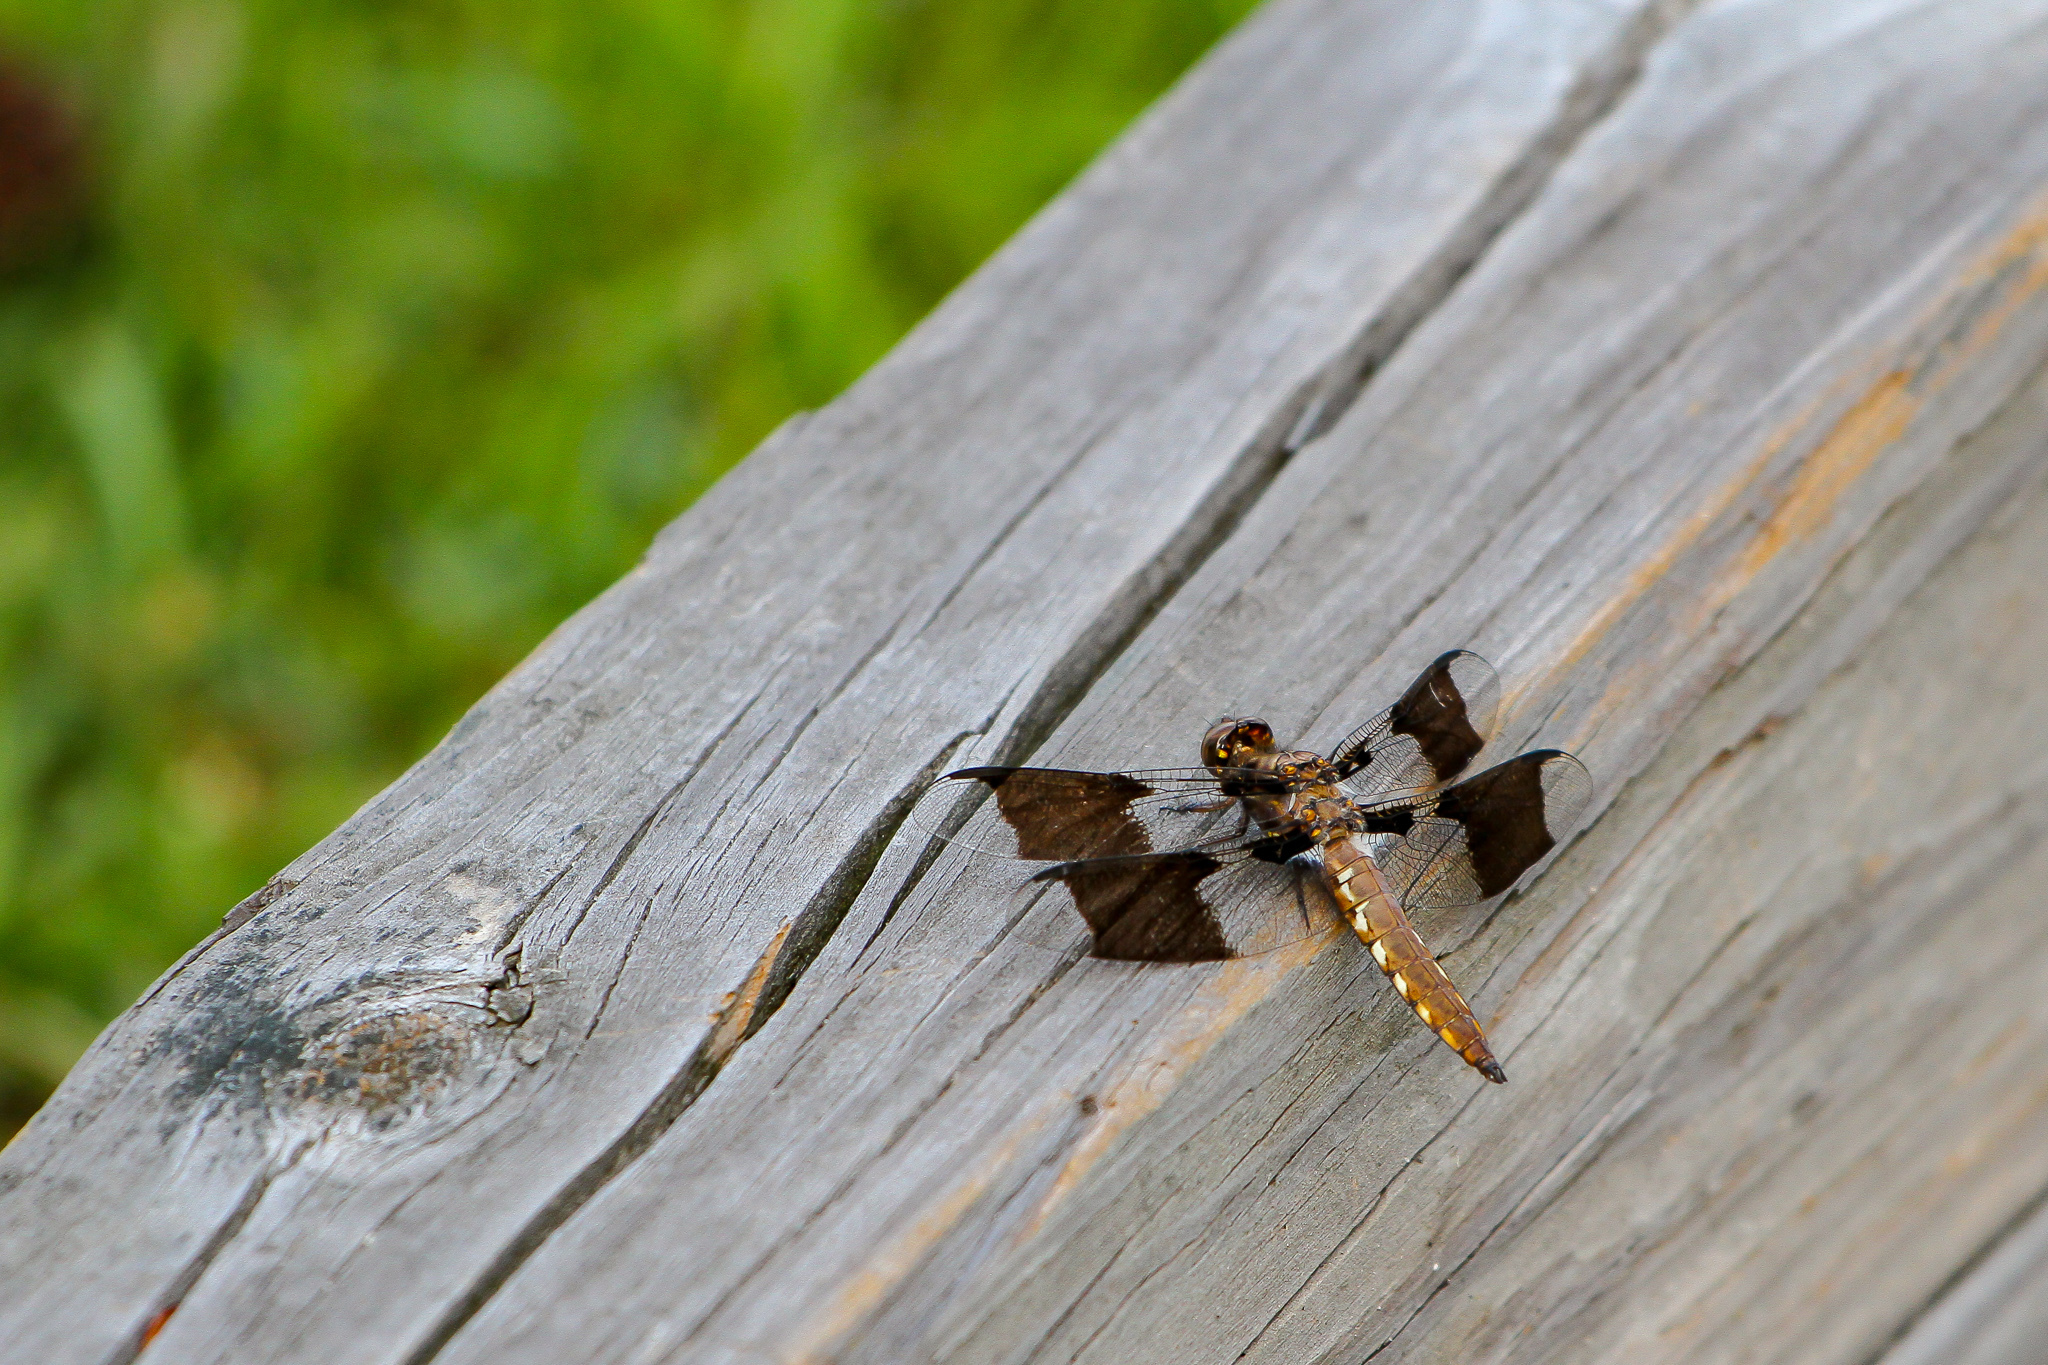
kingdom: Animalia
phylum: Arthropoda
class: Insecta
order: Odonata
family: Libellulidae
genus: Plathemis
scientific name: Plathemis lydia
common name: Common whitetail
